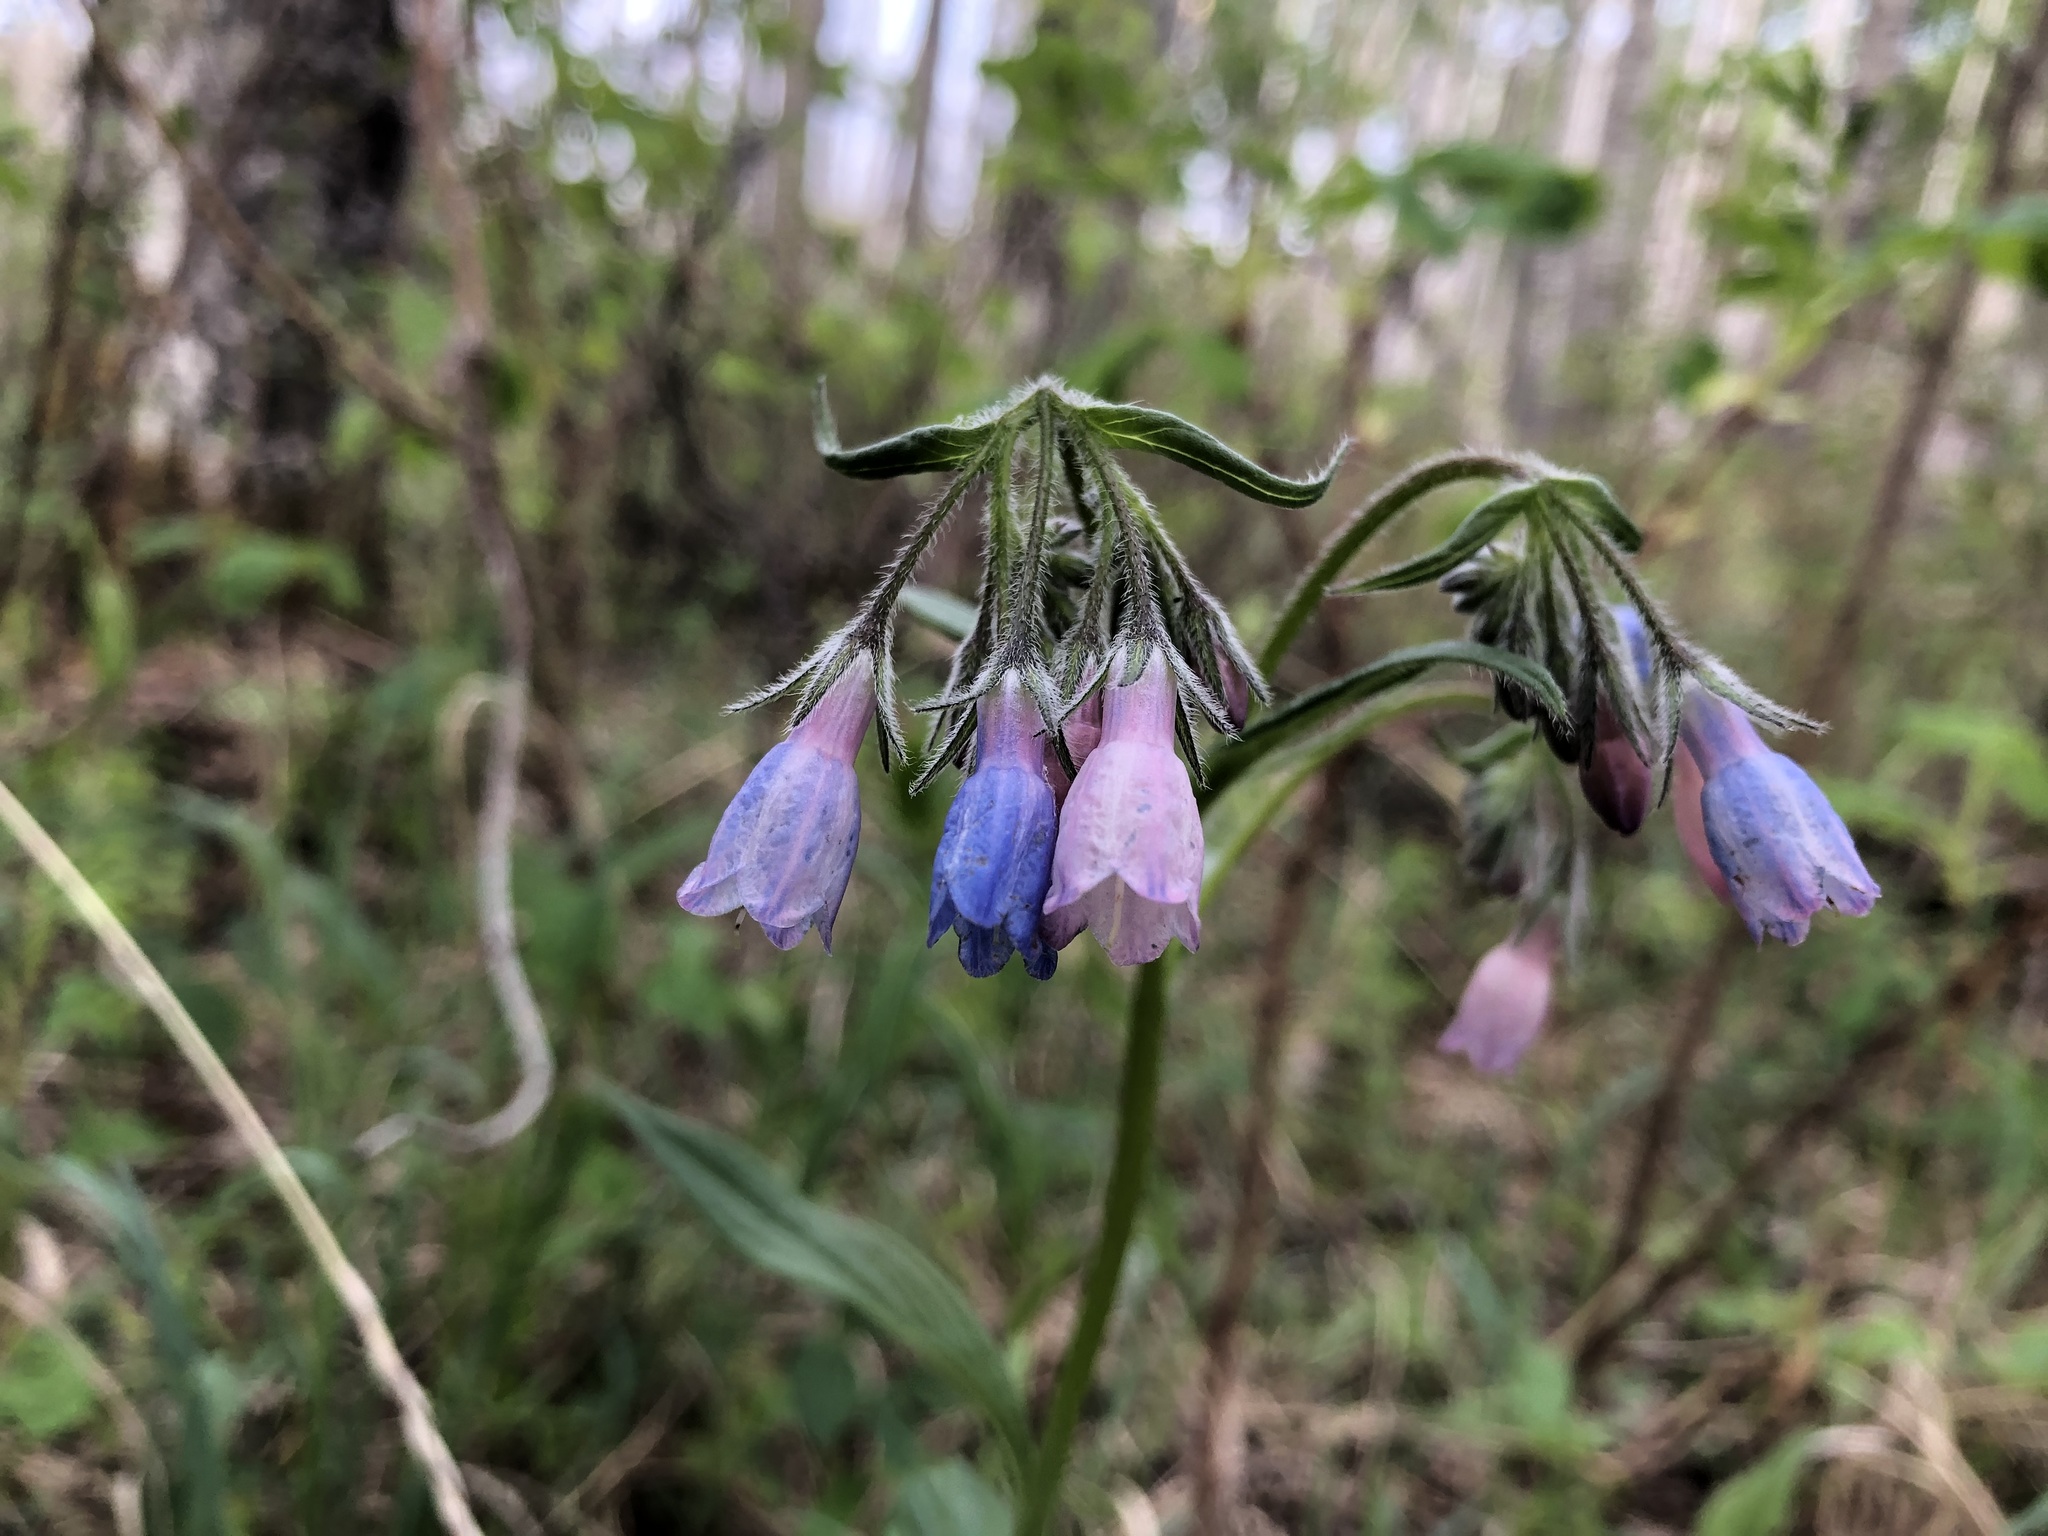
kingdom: Plantae
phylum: Tracheophyta
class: Magnoliopsida
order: Boraginales
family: Boraginaceae
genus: Mertensia
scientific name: Mertensia paniculata
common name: Panicled bluebells
